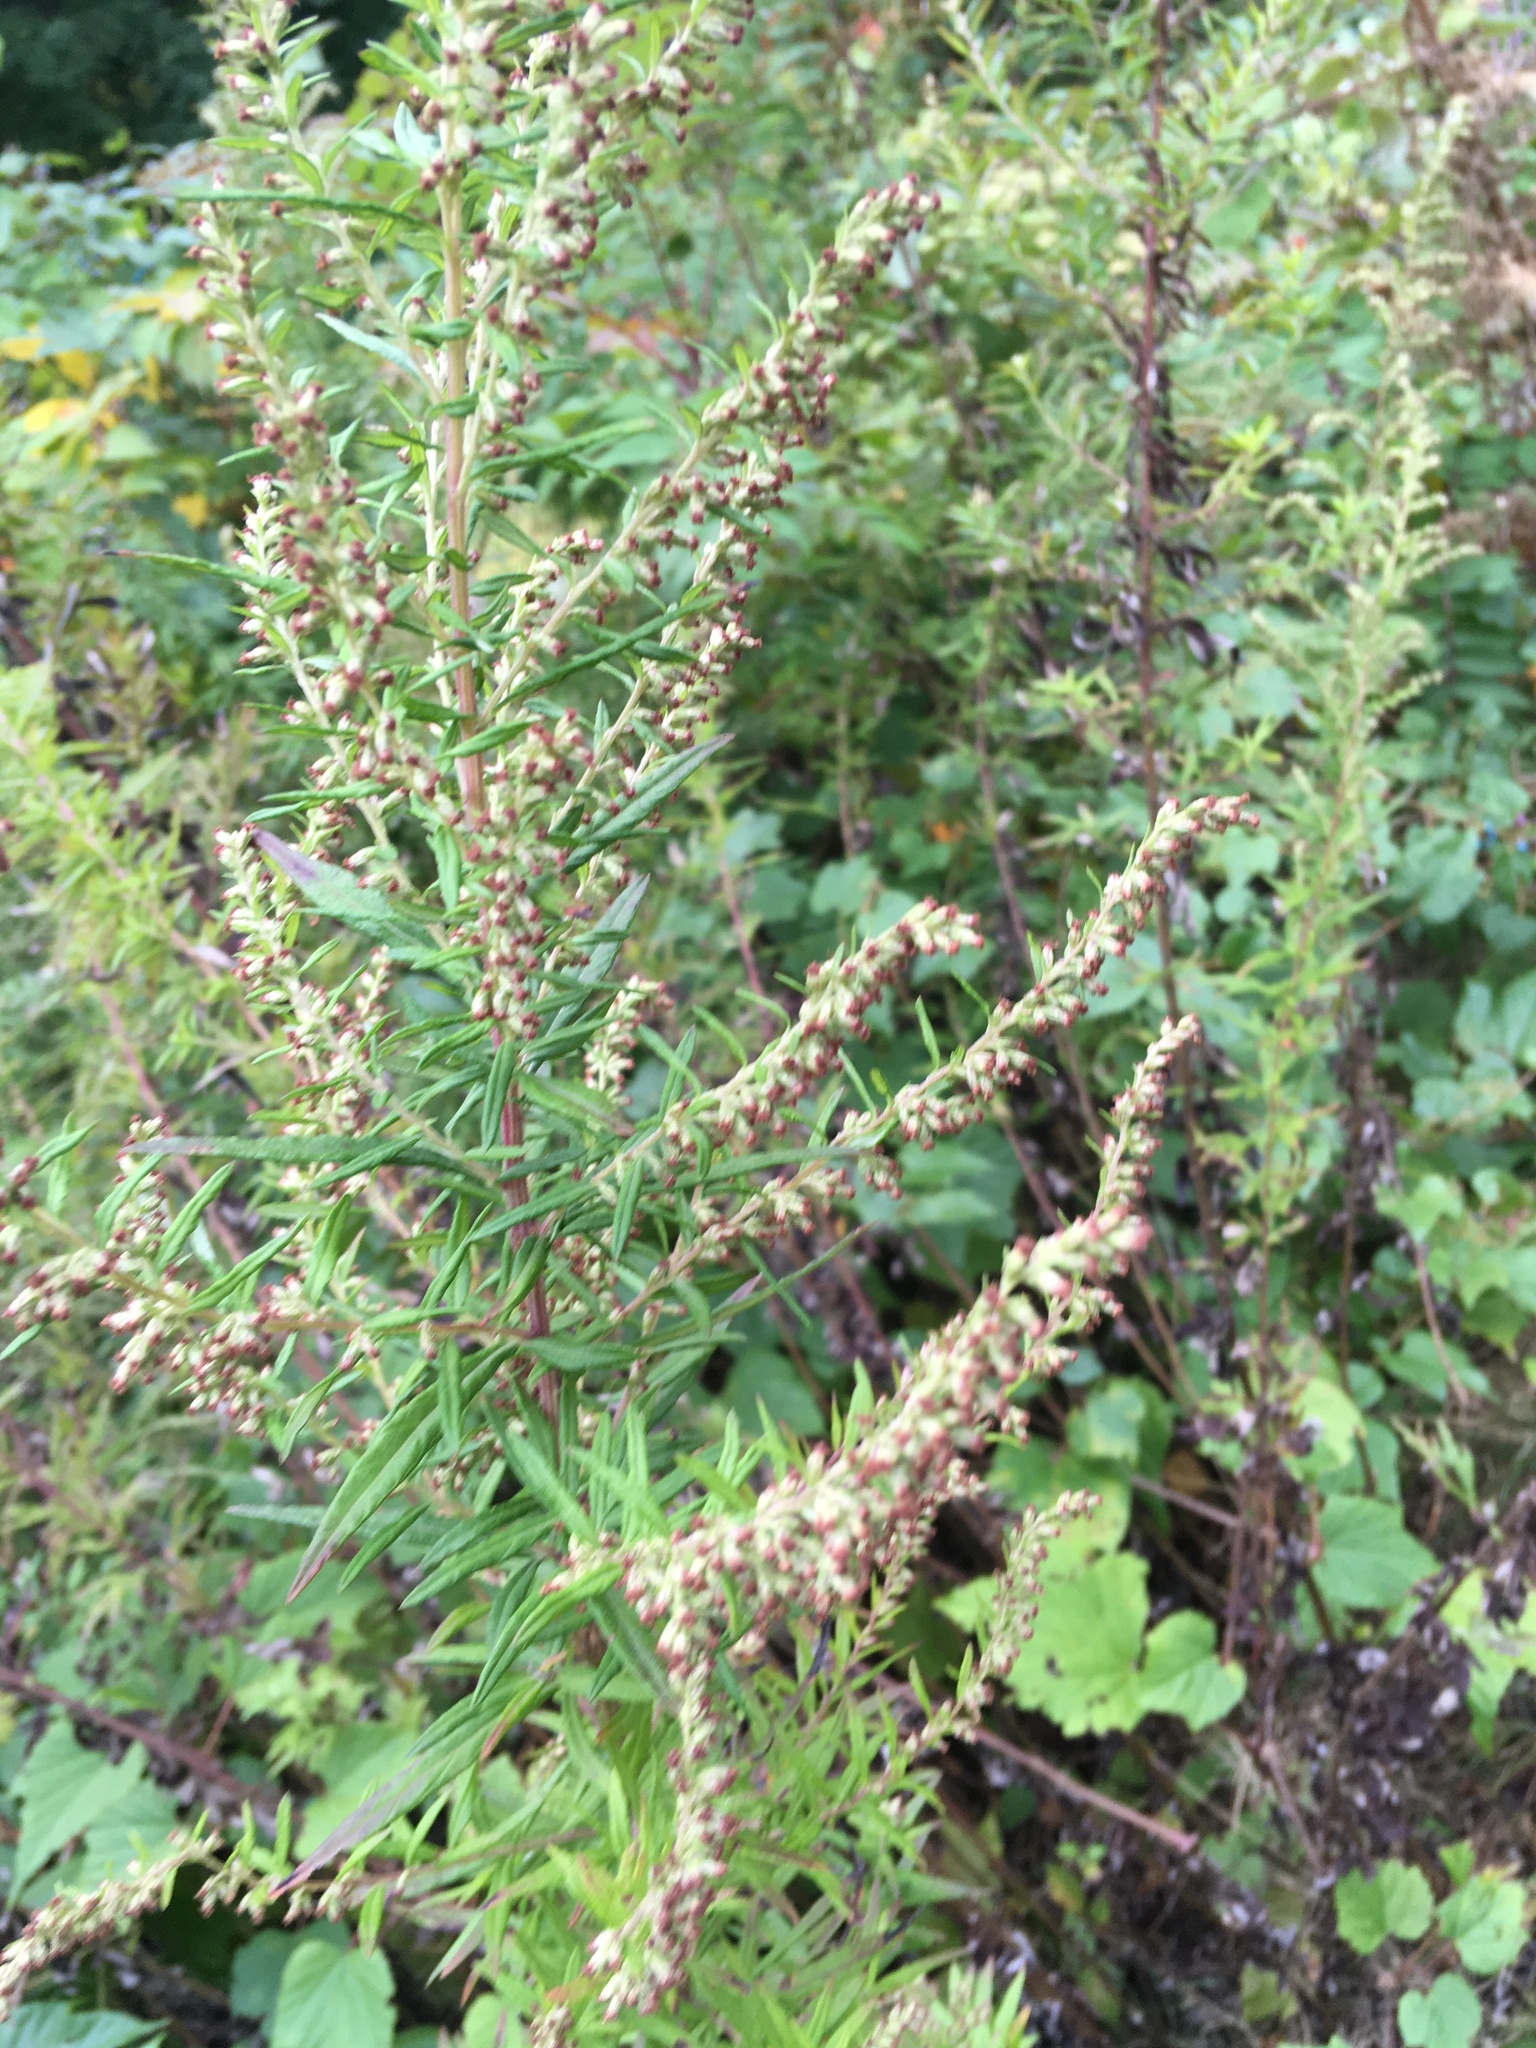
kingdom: Plantae
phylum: Tracheophyta
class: Magnoliopsida
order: Asterales
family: Asteraceae
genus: Artemisia
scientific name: Artemisia vulgaris
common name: Mugwort
